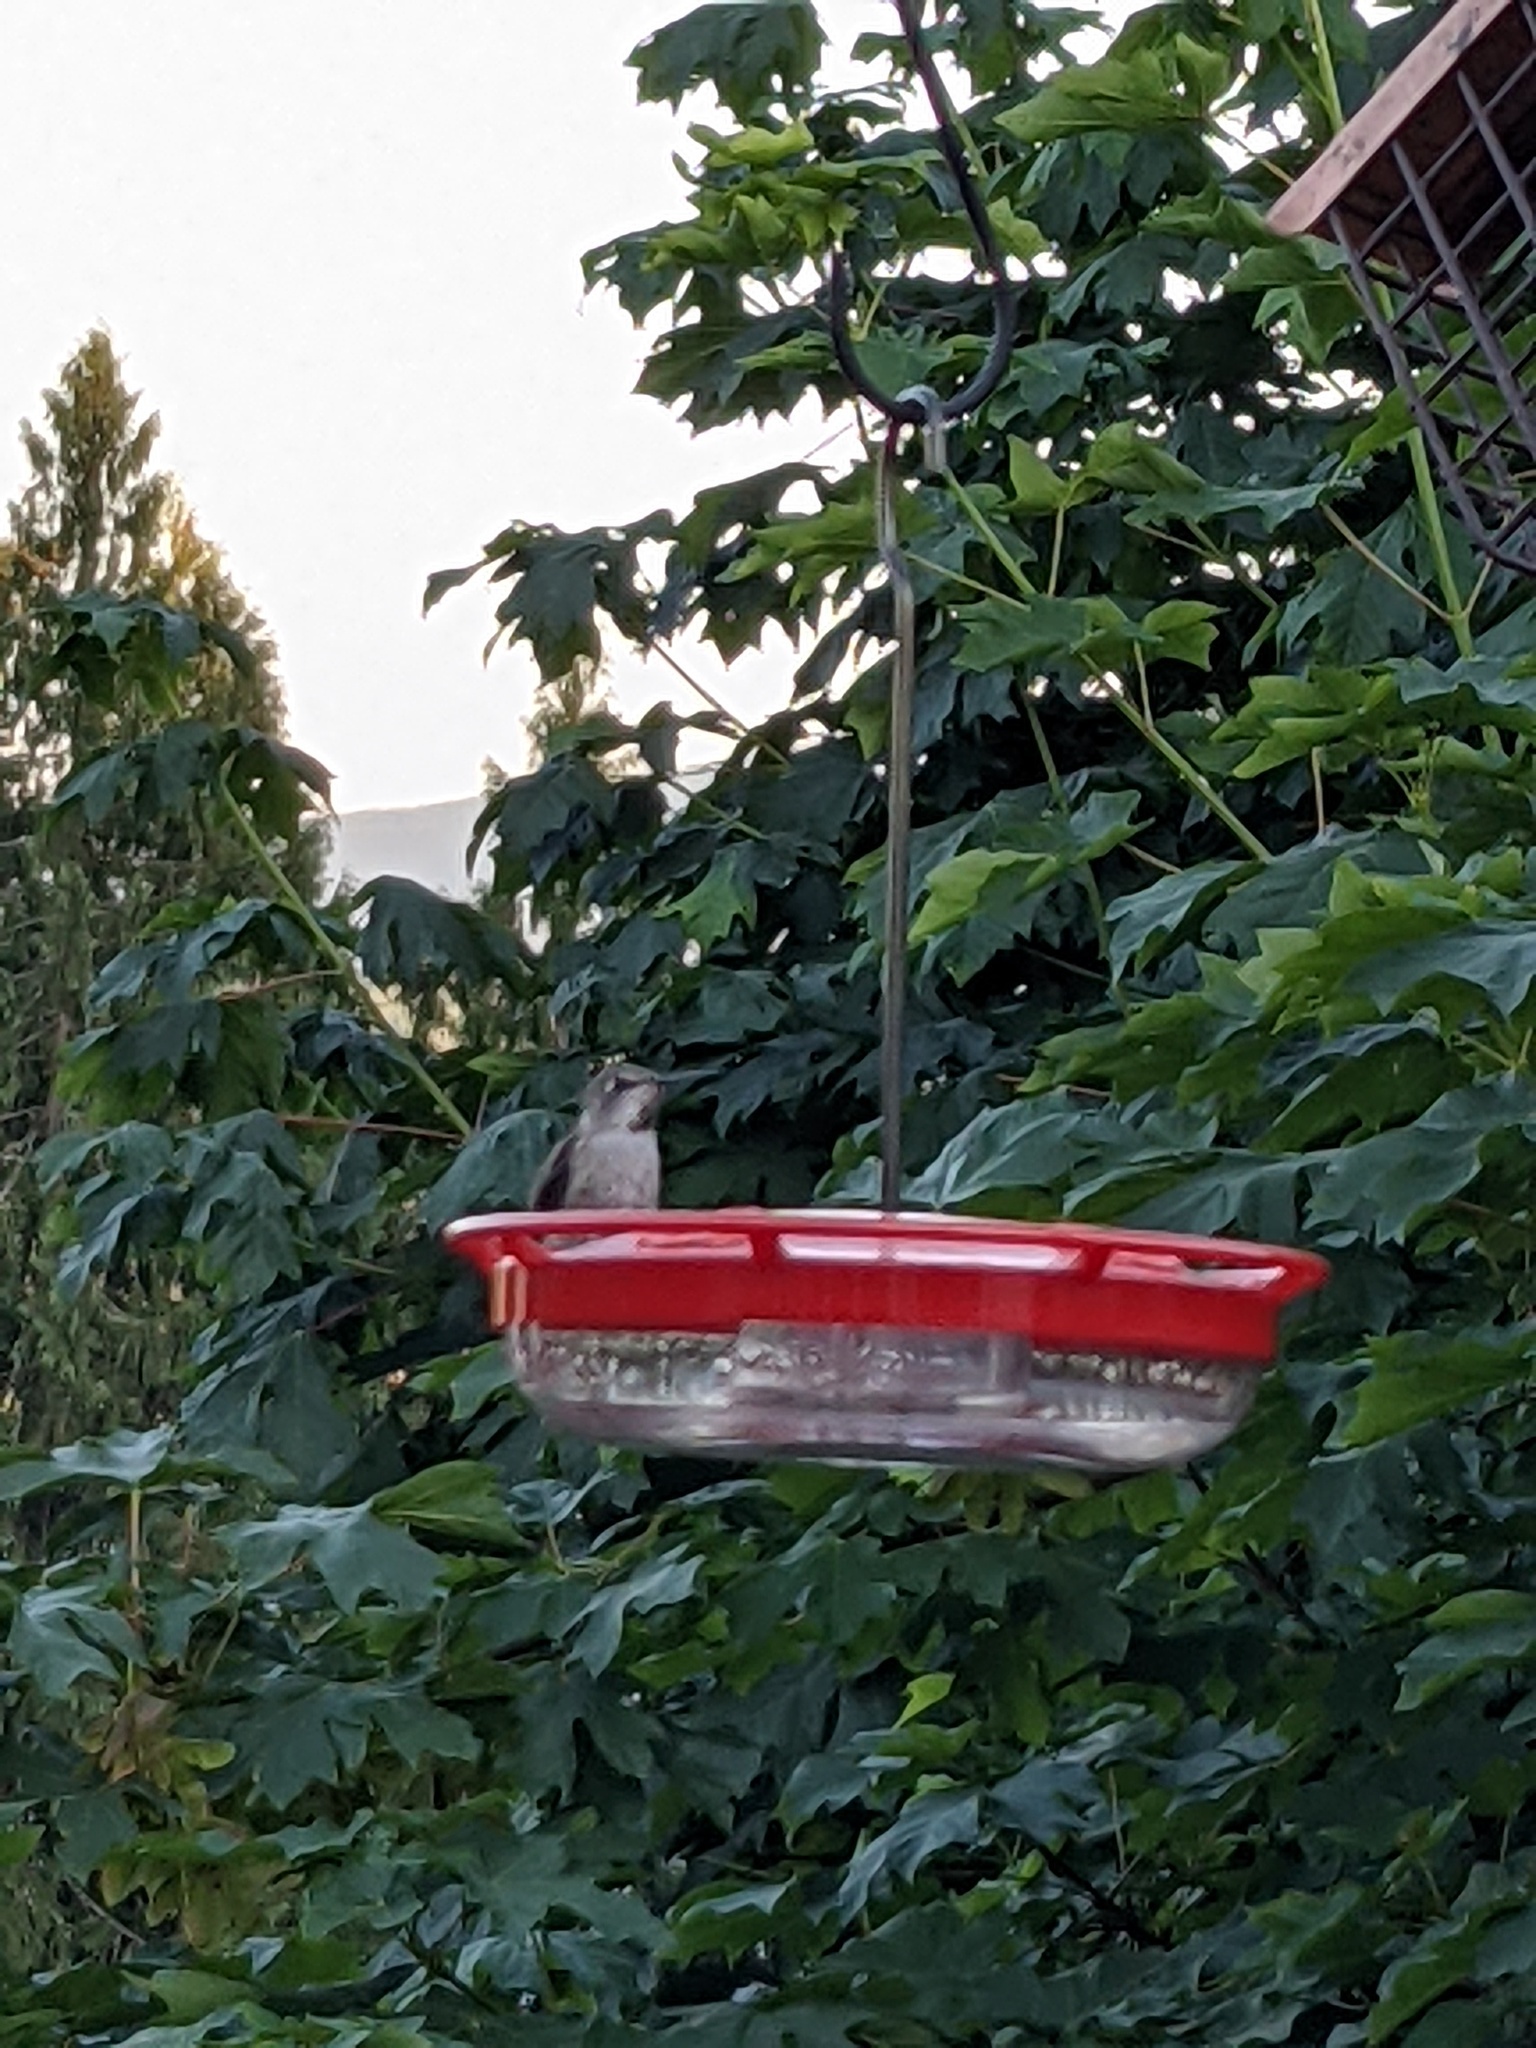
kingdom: Animalia
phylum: Chordata
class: Aves
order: Apodiformes
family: Trochilidae
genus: Calypte
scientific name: Calypte anna
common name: Anna's hummingbird
